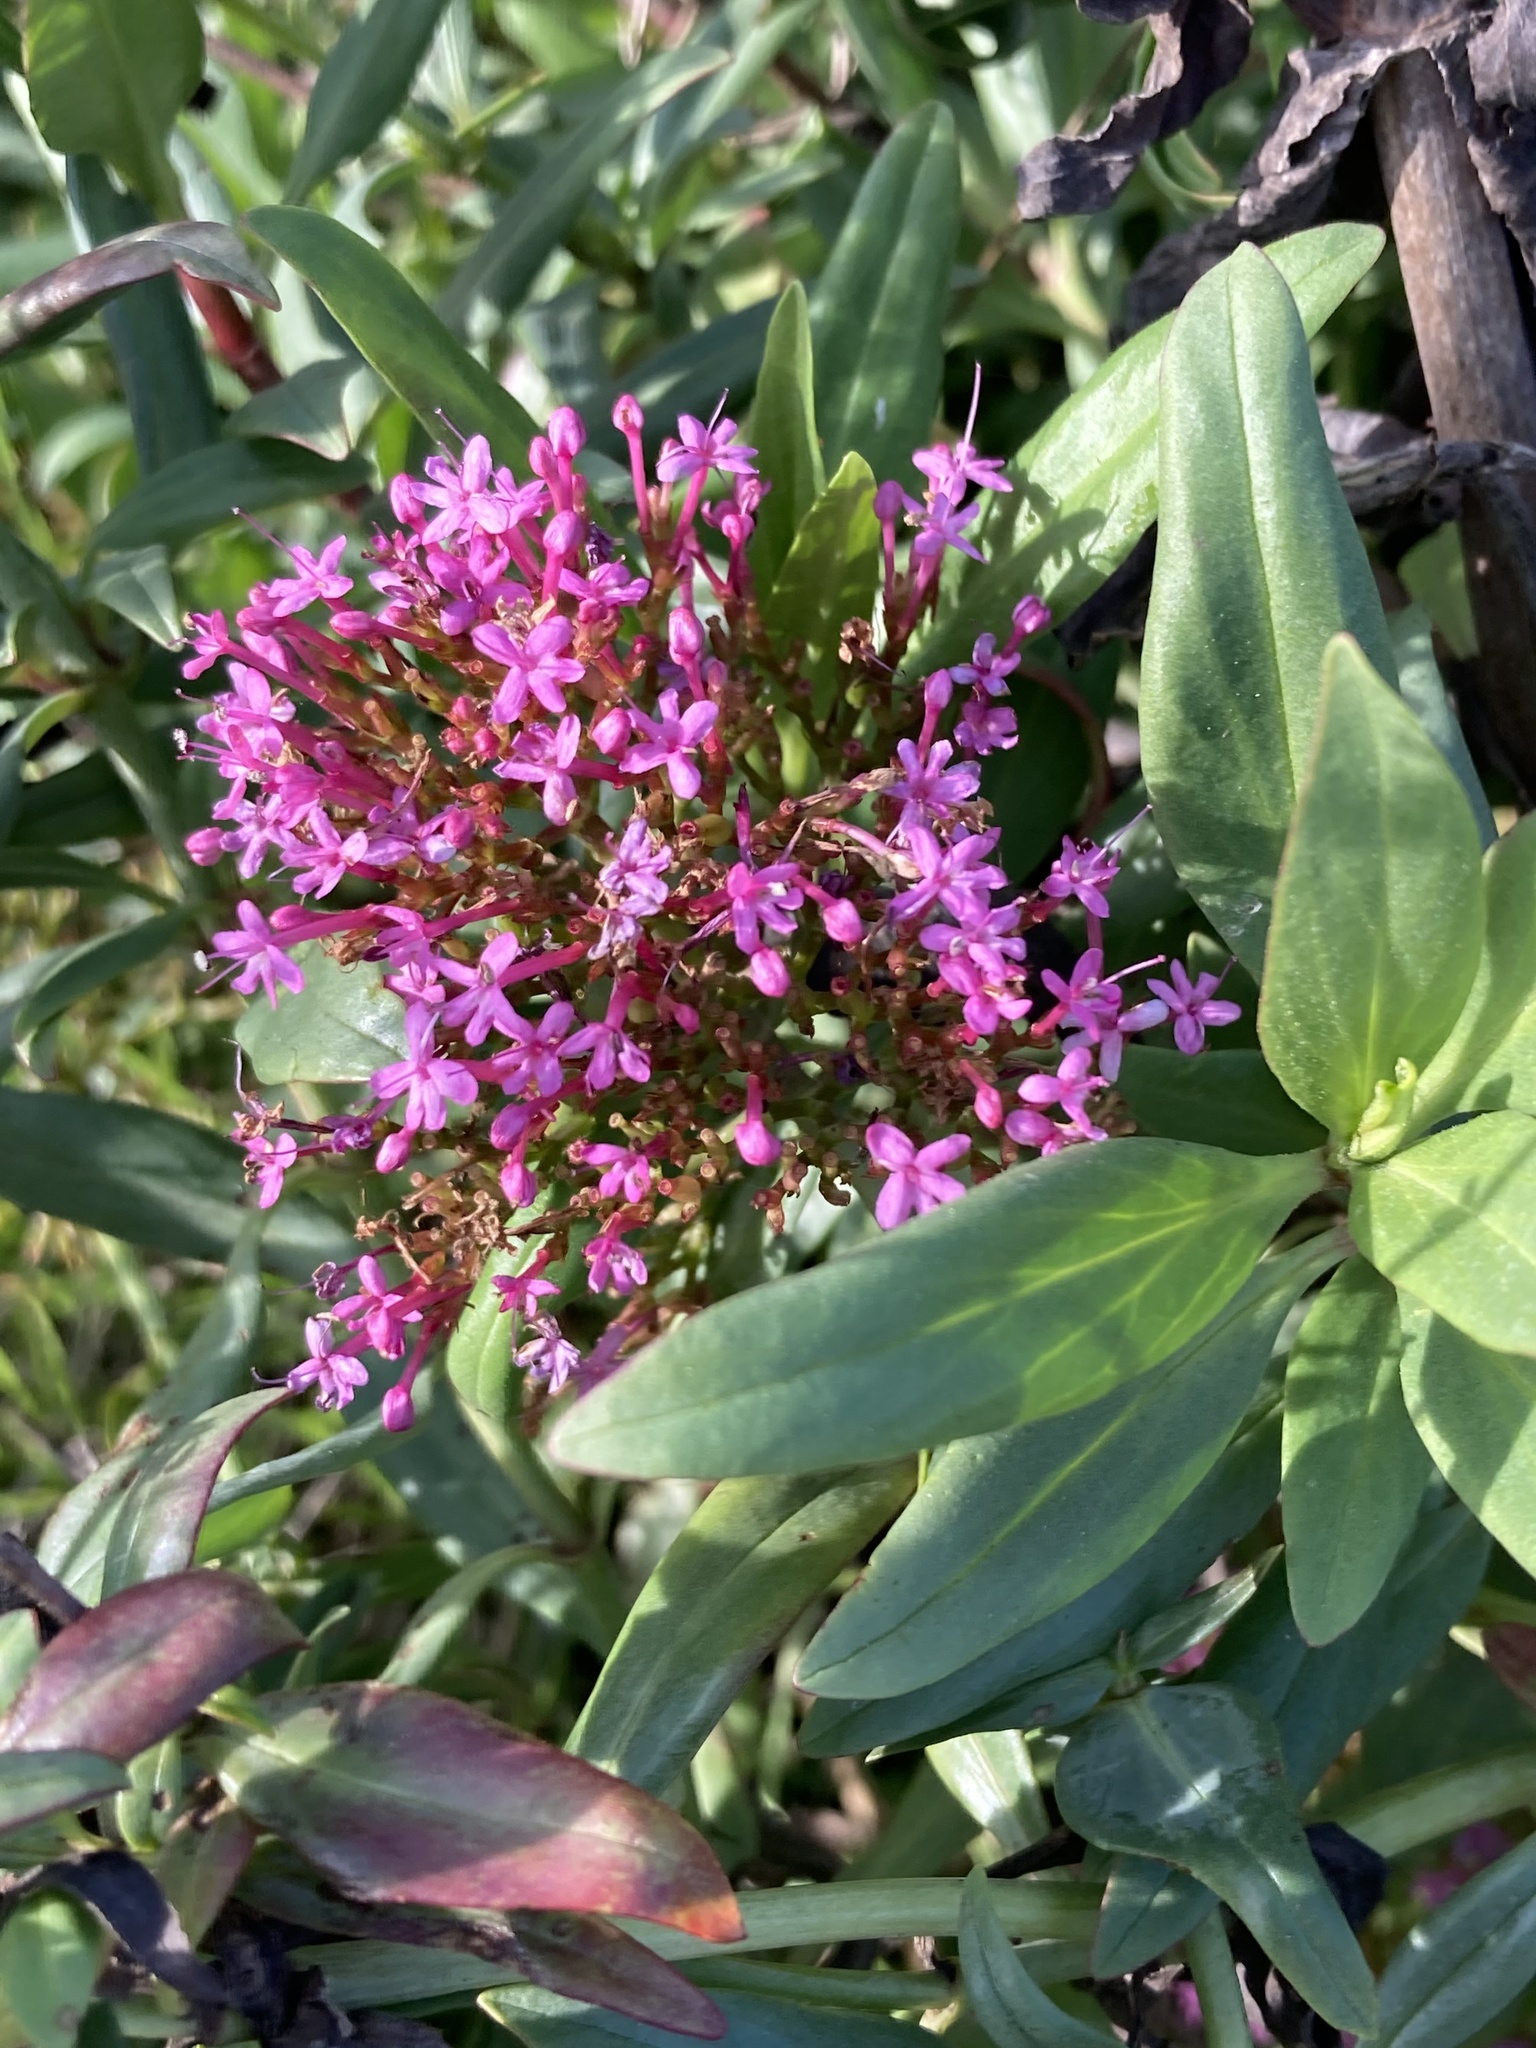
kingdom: Plantae
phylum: Tracheophyta
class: Magnoliopsida
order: Dipsacales
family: Caprifoliaceae
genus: Centranthus
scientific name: Centranthus ruber
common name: Red valerian
